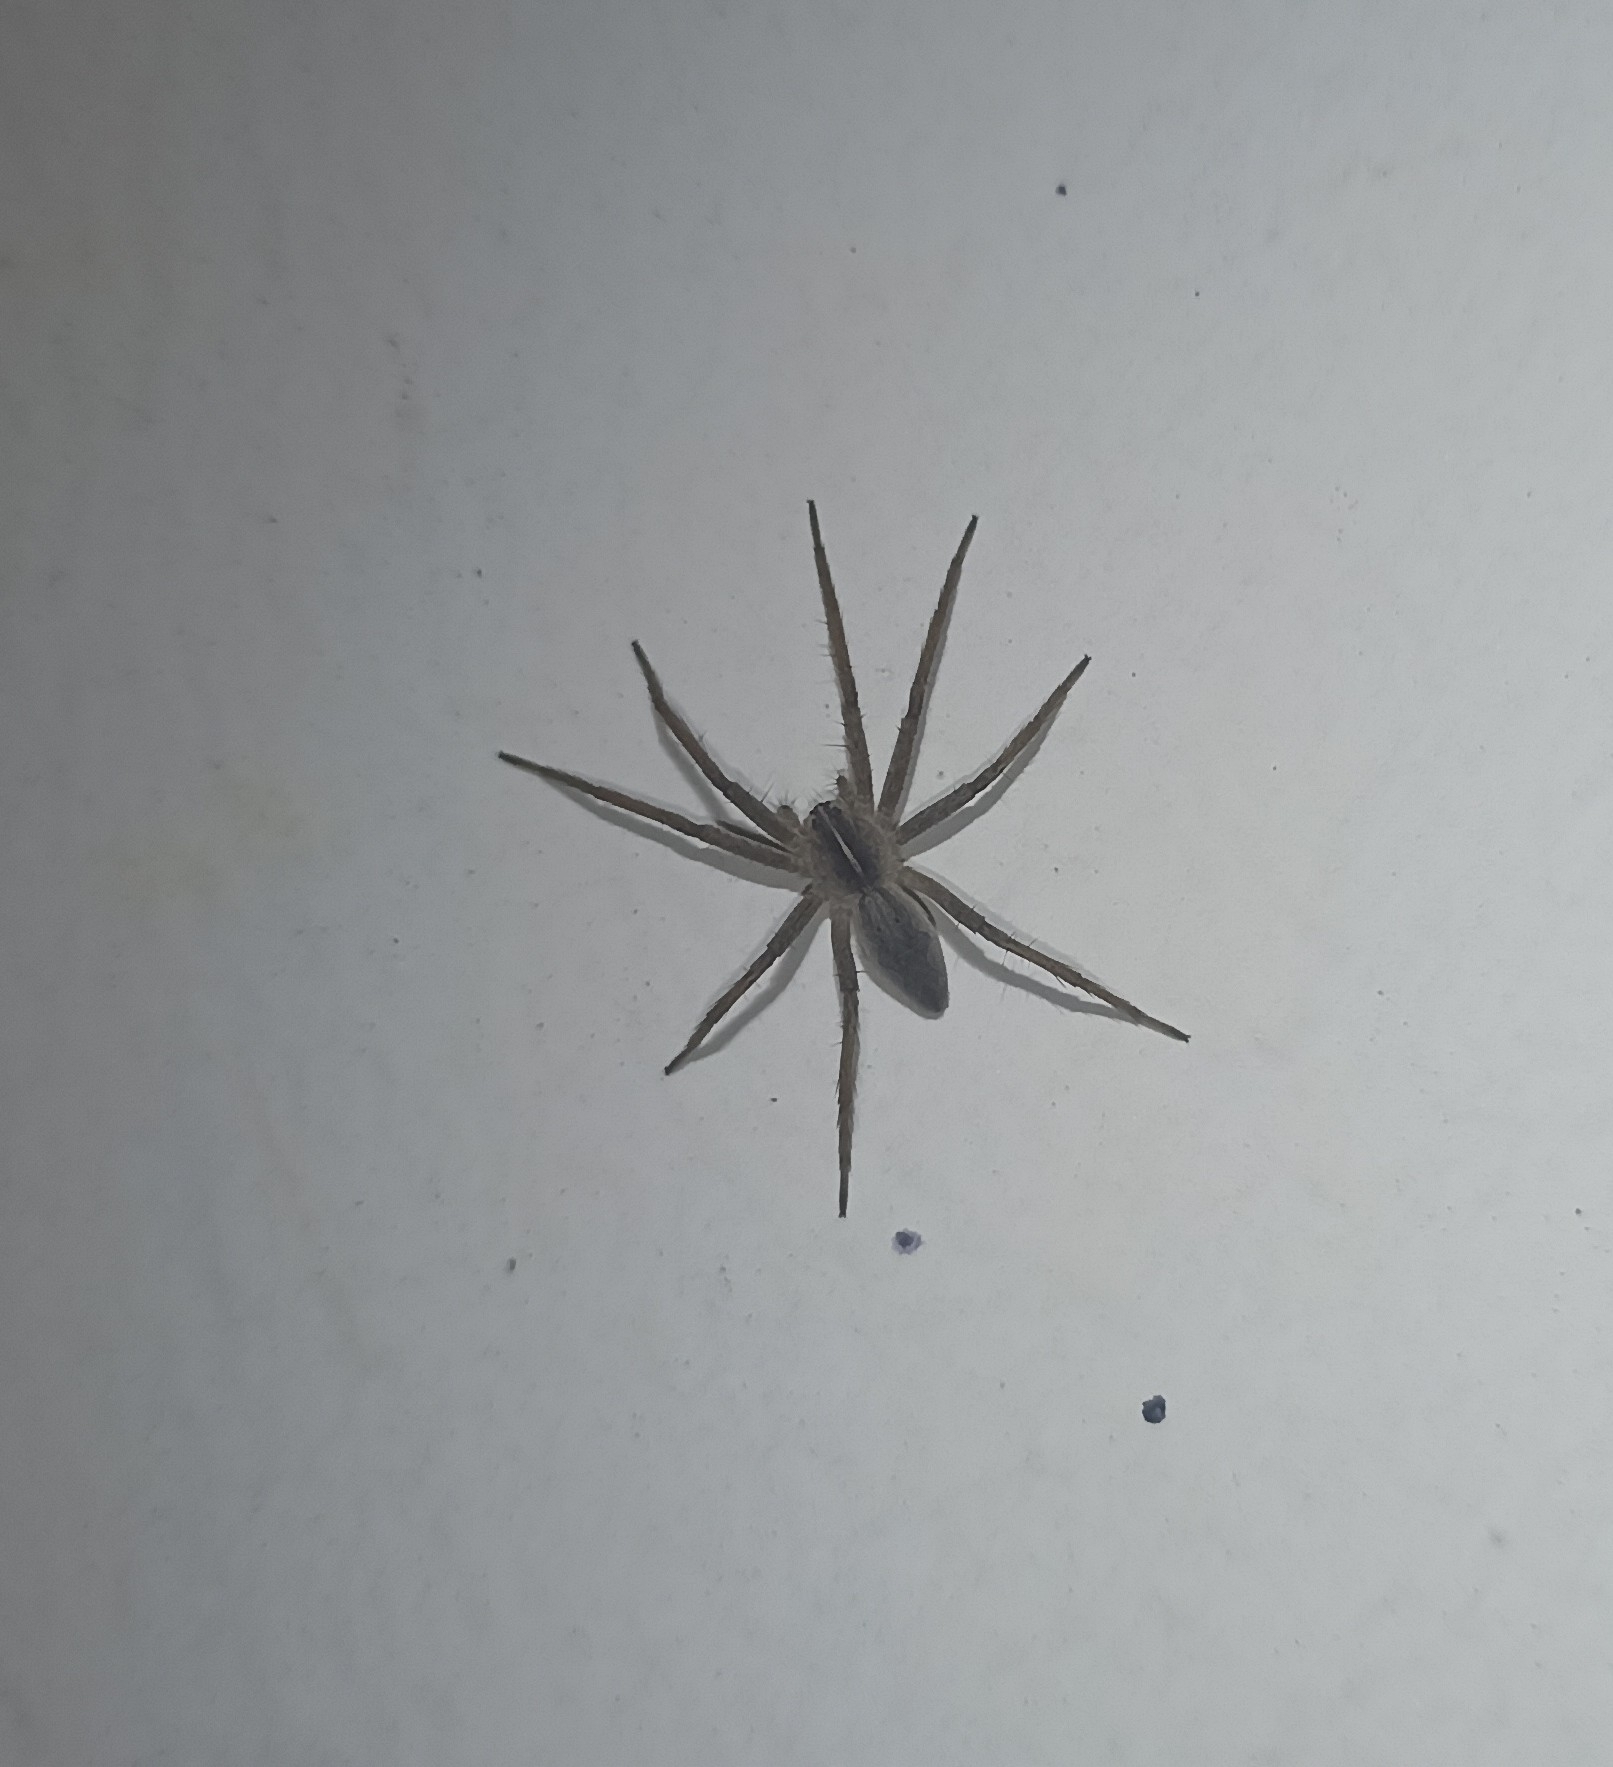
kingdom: Animalia
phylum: Arthropoda
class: Arachnida
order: Araneae
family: Pisauridae
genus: Pisaura
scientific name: Pisaura mirabilis
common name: Tent spider
